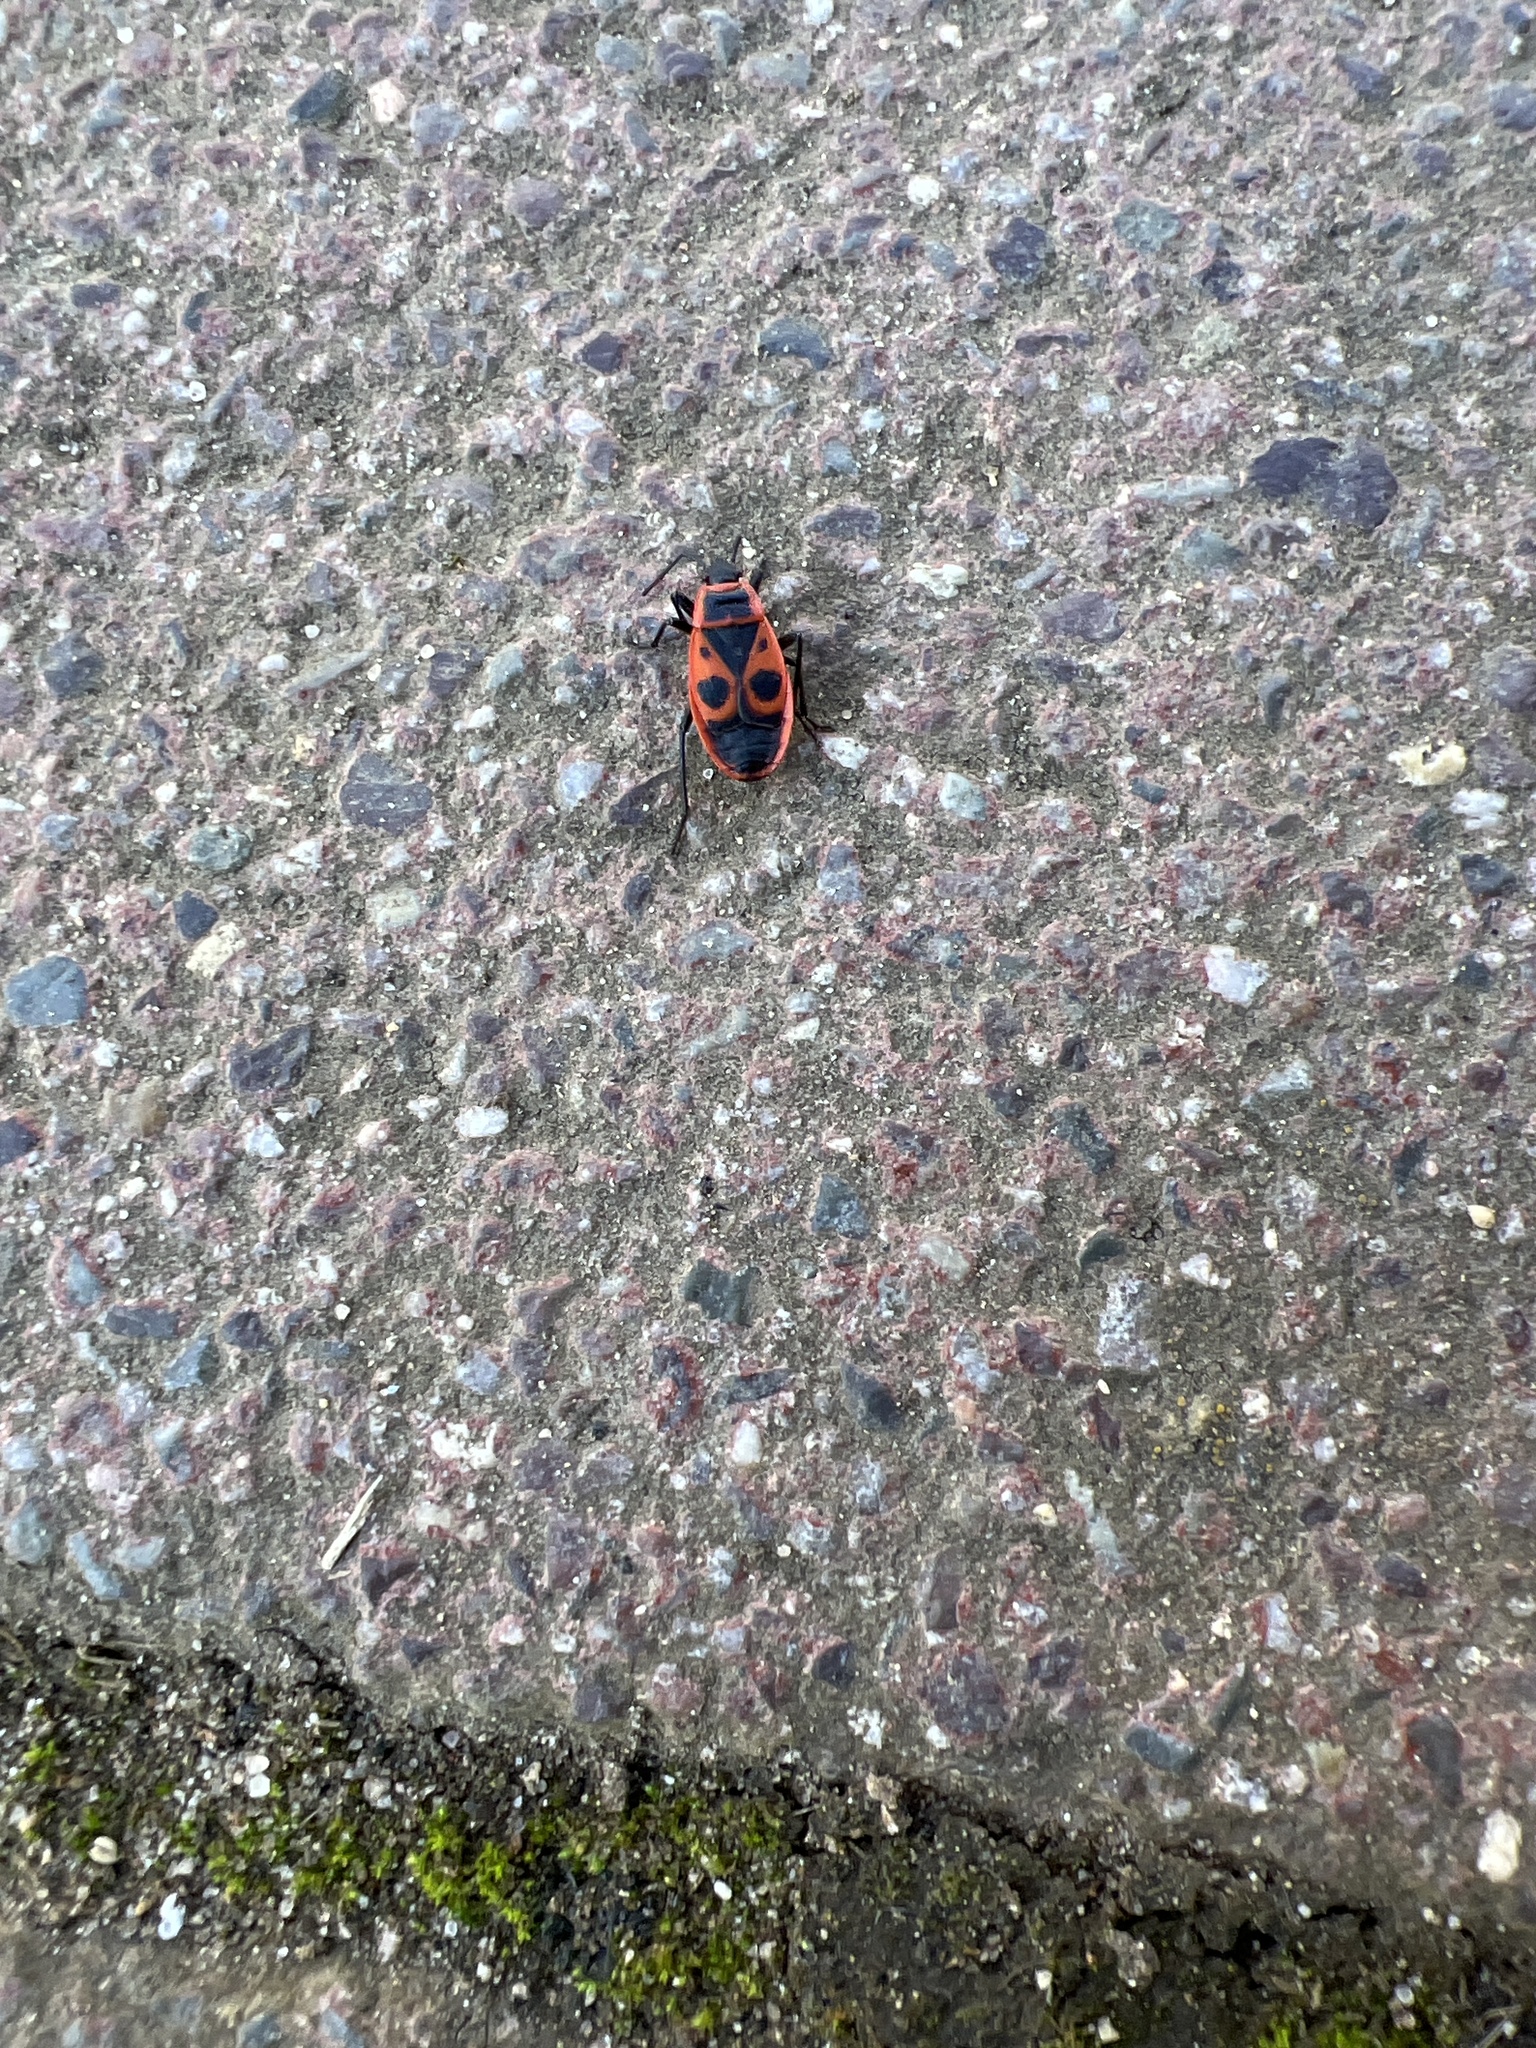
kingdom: Animalia
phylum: Arthropoda
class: Insecta
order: Hemiptera
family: Pyrrhocoridae
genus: Pyrrhocoris
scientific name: Pyrrhocoris apterus
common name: Firebug
